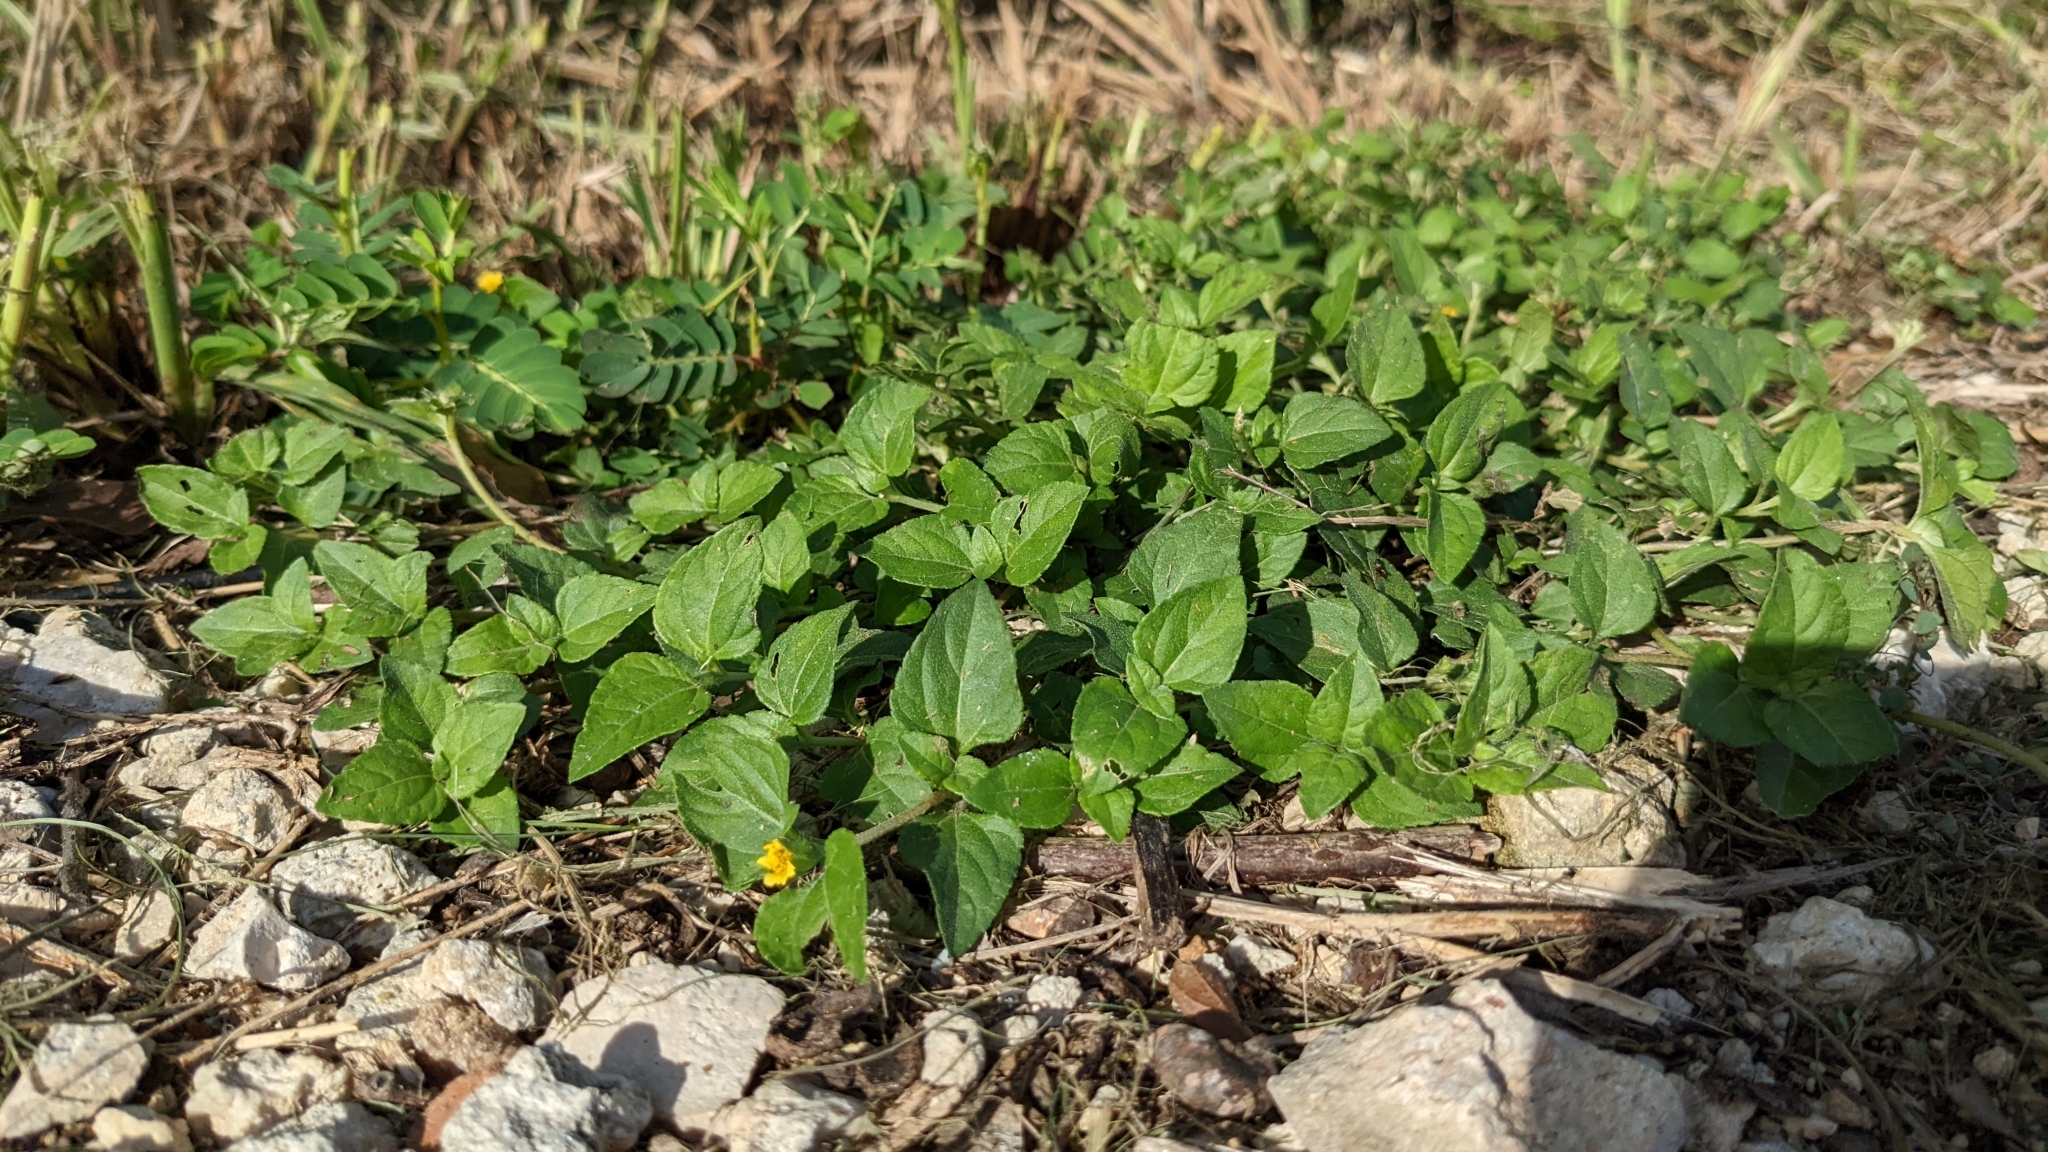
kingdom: Plantae
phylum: Tracheophyta
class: Magnoliopsida
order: Asterales
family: Asteraceae
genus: Calyptocarpus
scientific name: Calyptocarpus vialis
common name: Straggler daisy
